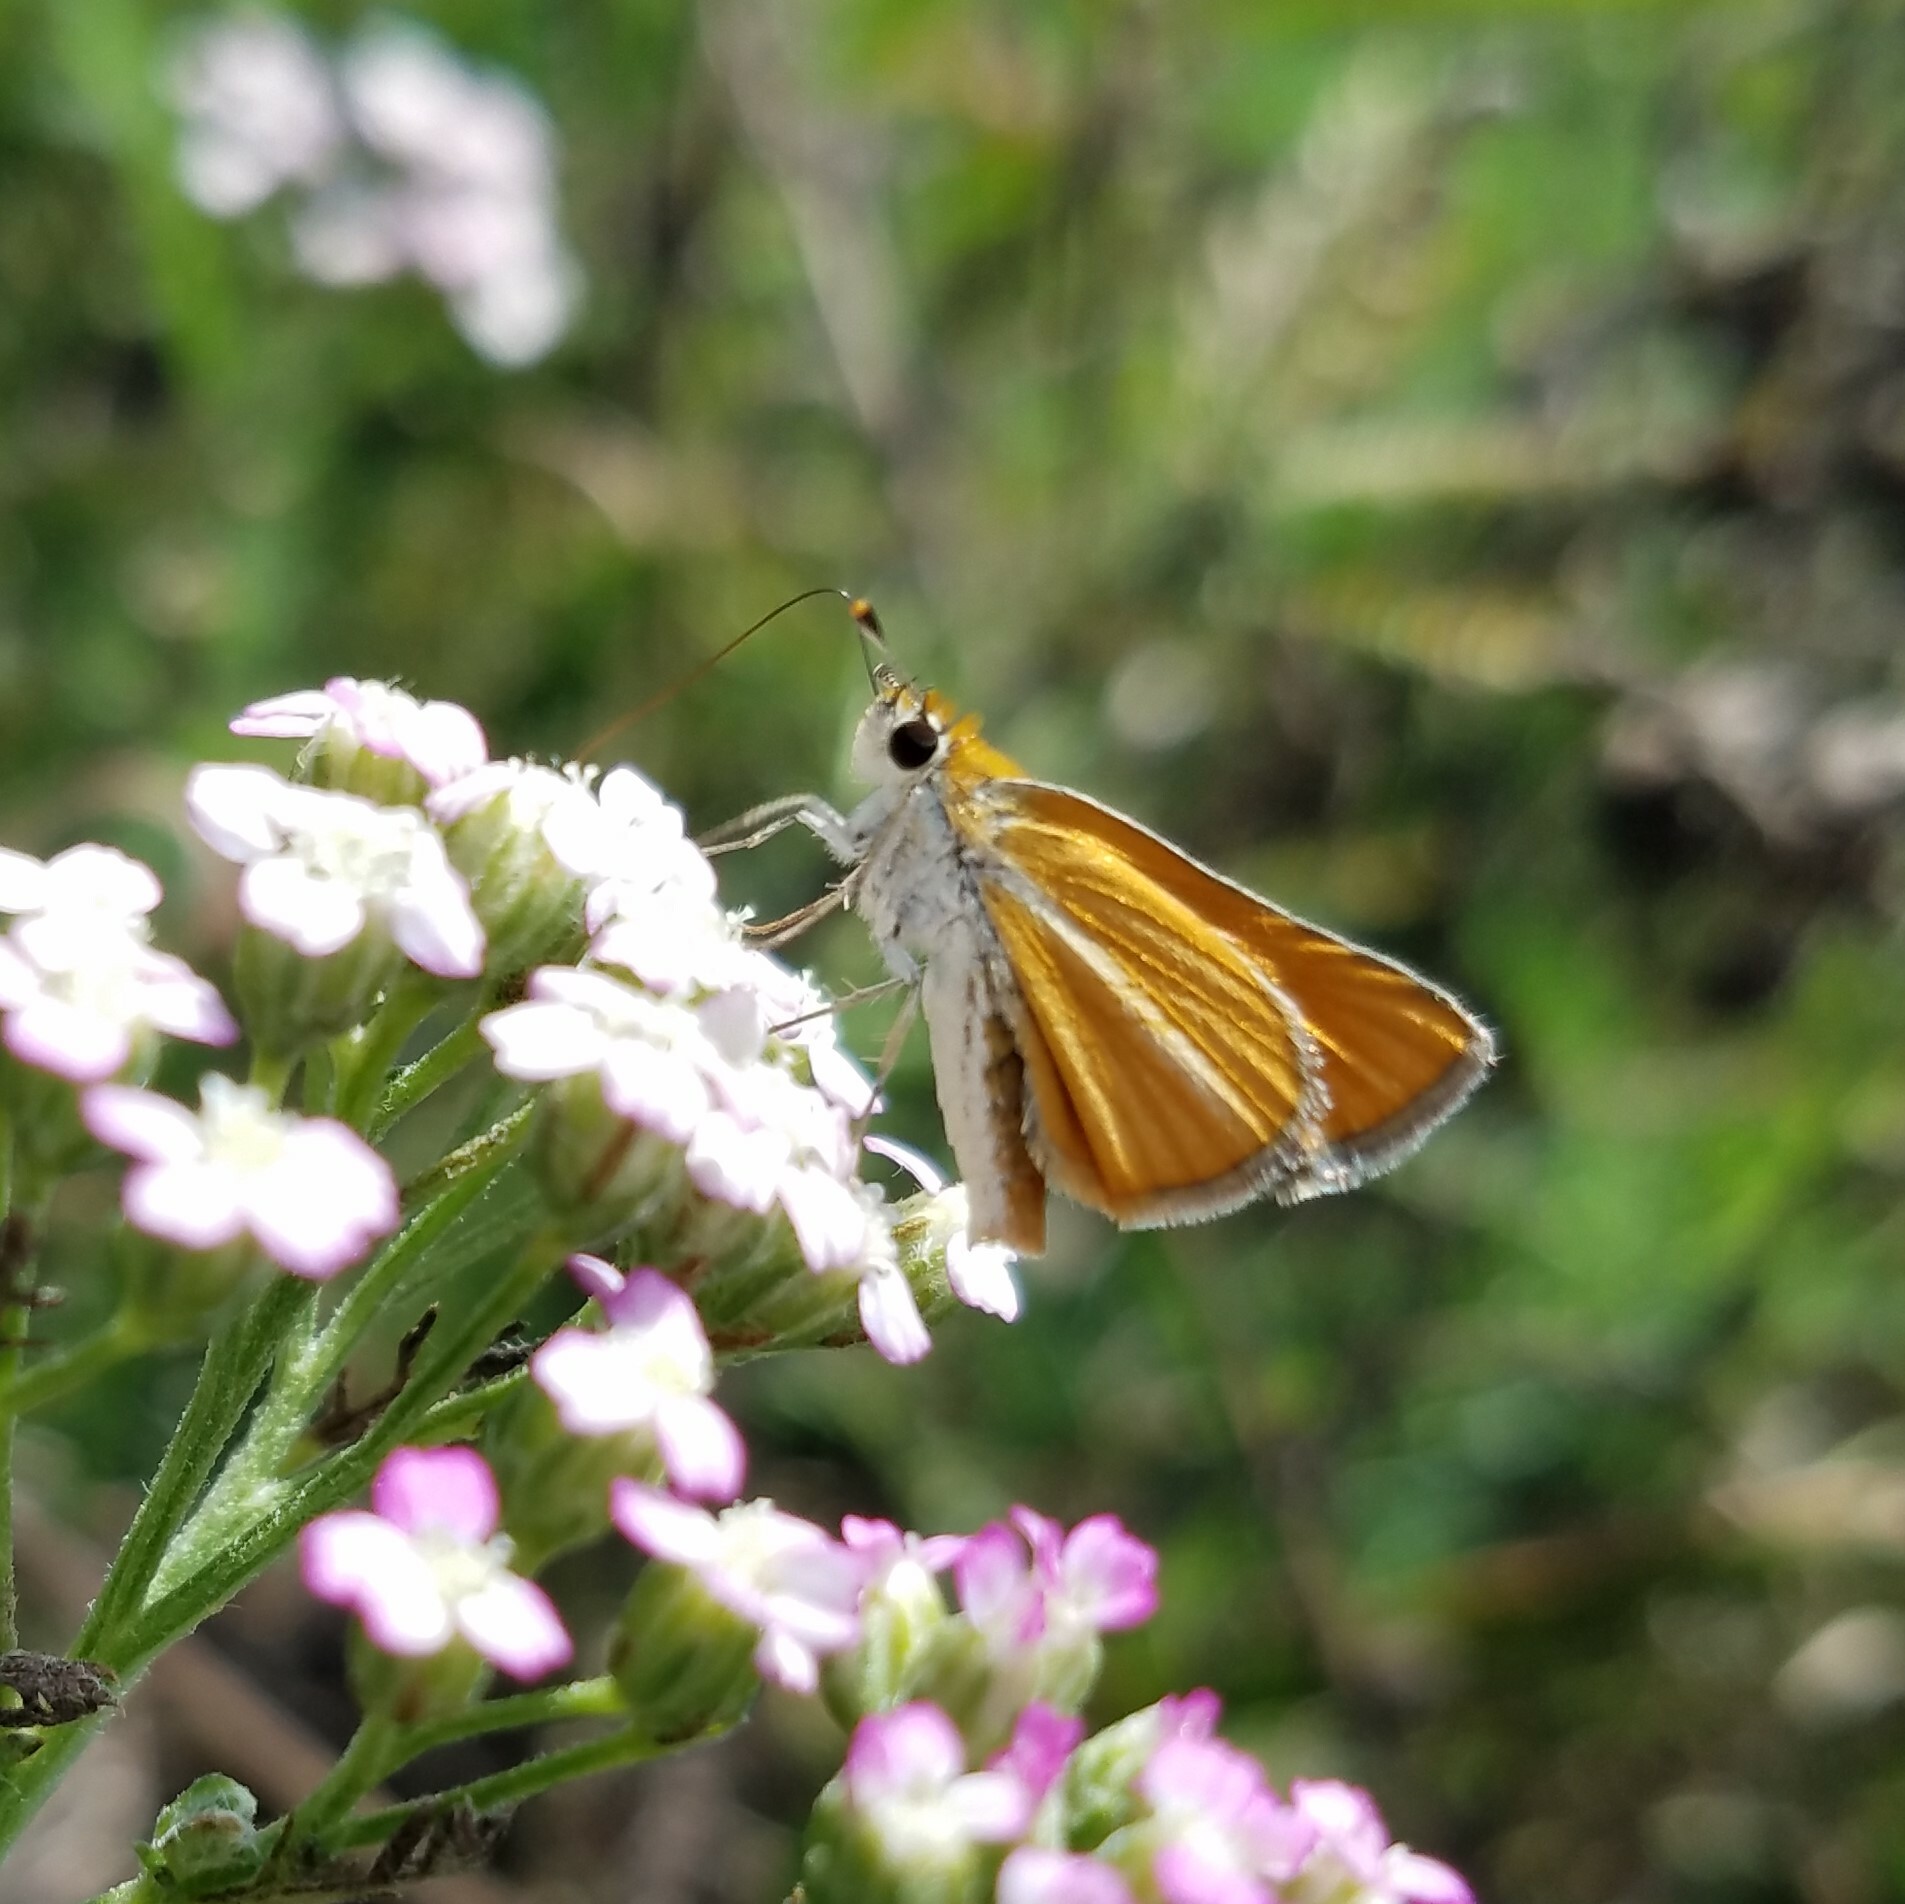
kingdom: Animalia
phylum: Arthropoda
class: Insecta
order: Lepidoptera
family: Hesperiidae
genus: Copaeodes
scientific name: Copaeodes minima
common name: Southern skipperling
